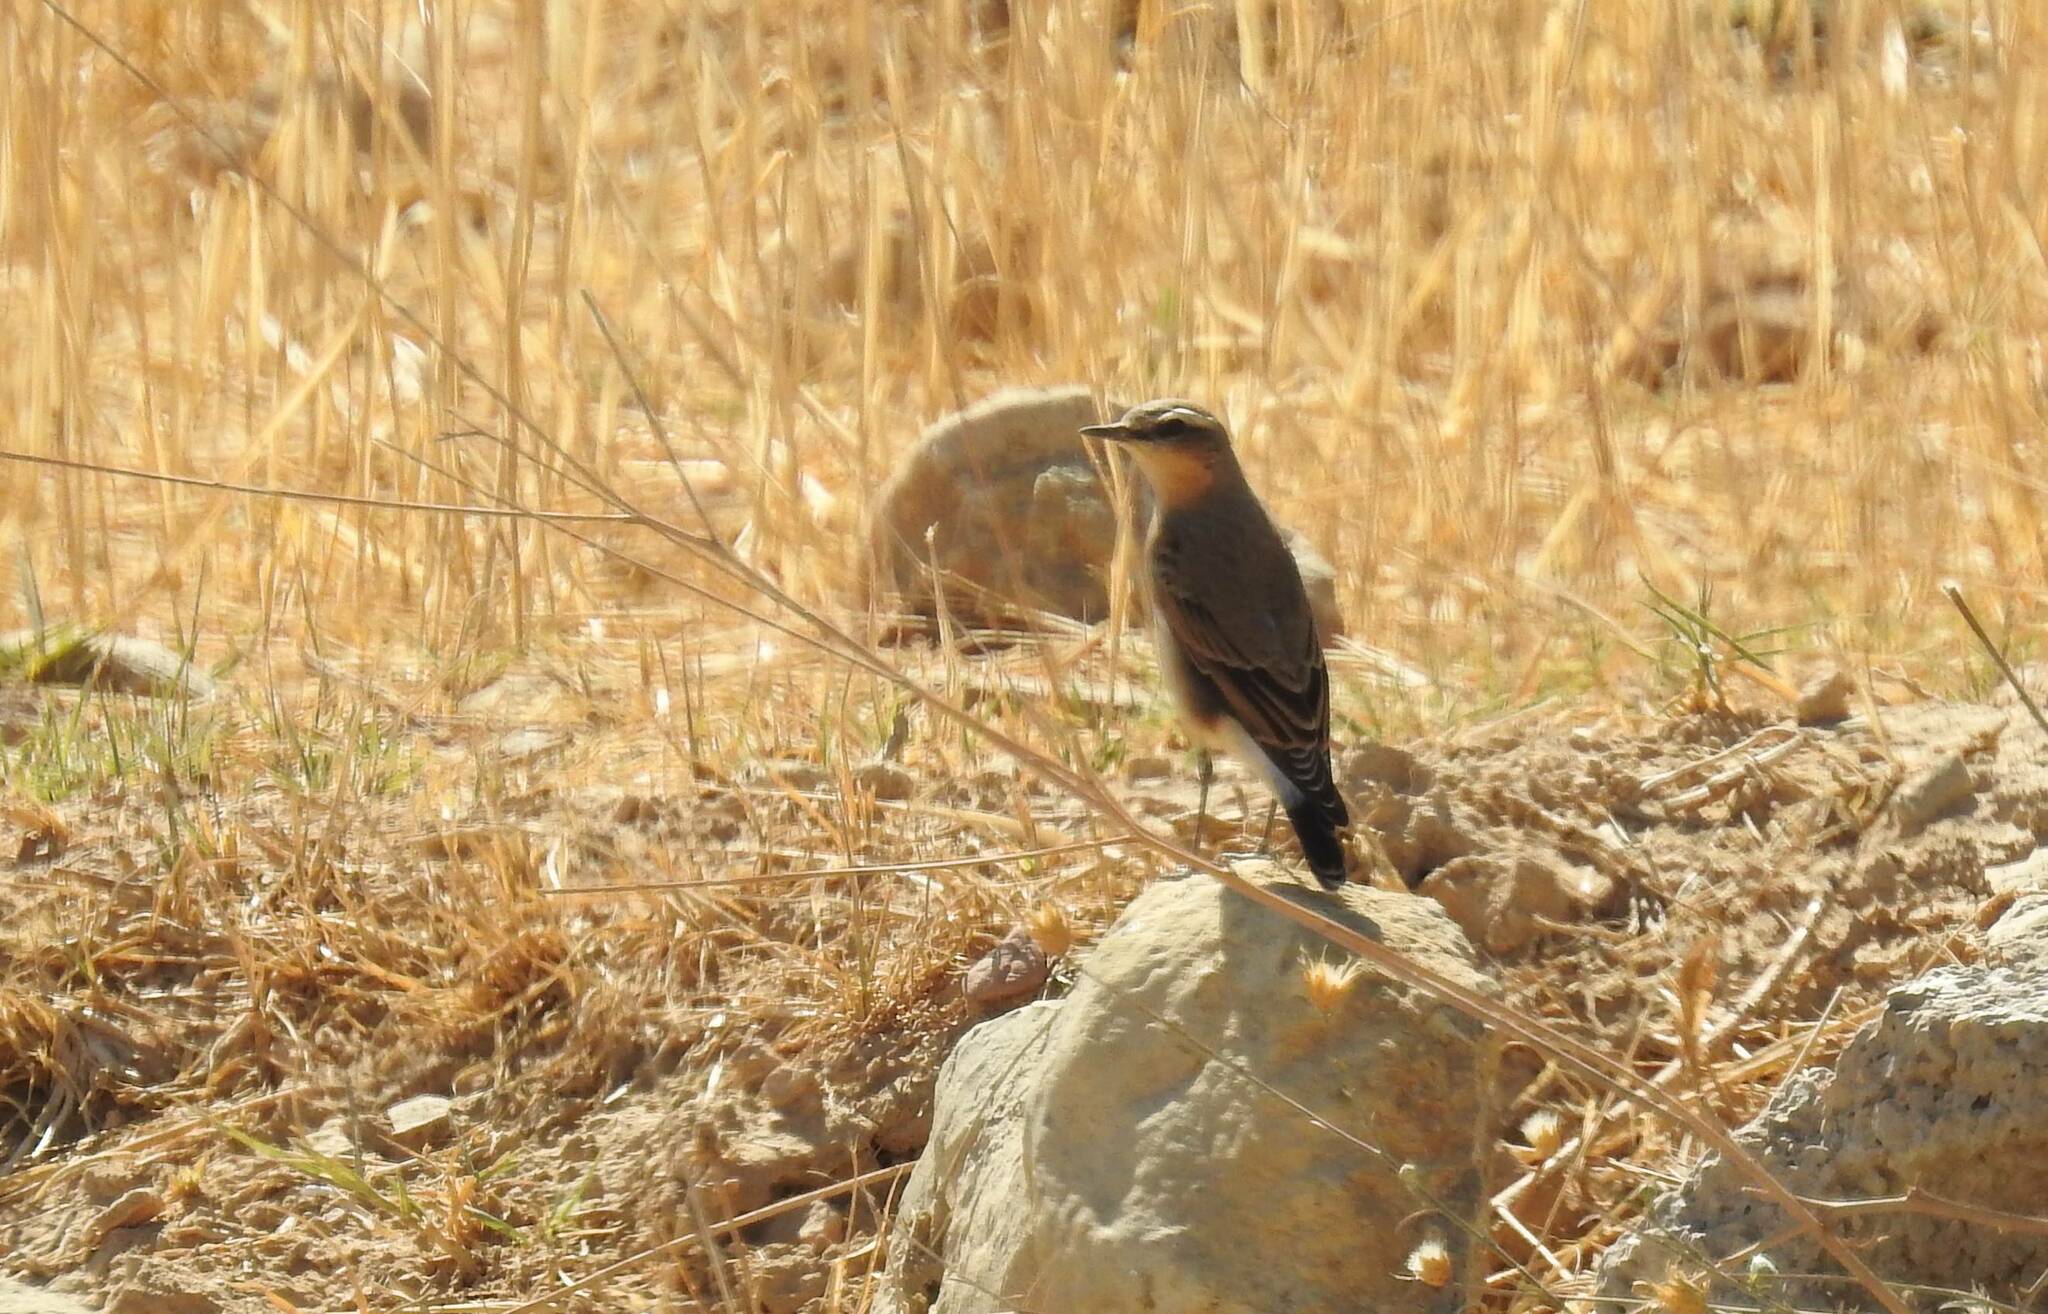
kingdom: Animalia
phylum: Chordata
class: Aves
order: Passeriformes
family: Muscicapidae
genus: Oenanthe
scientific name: Oenanthe oenanthe
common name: Northern wheatear
